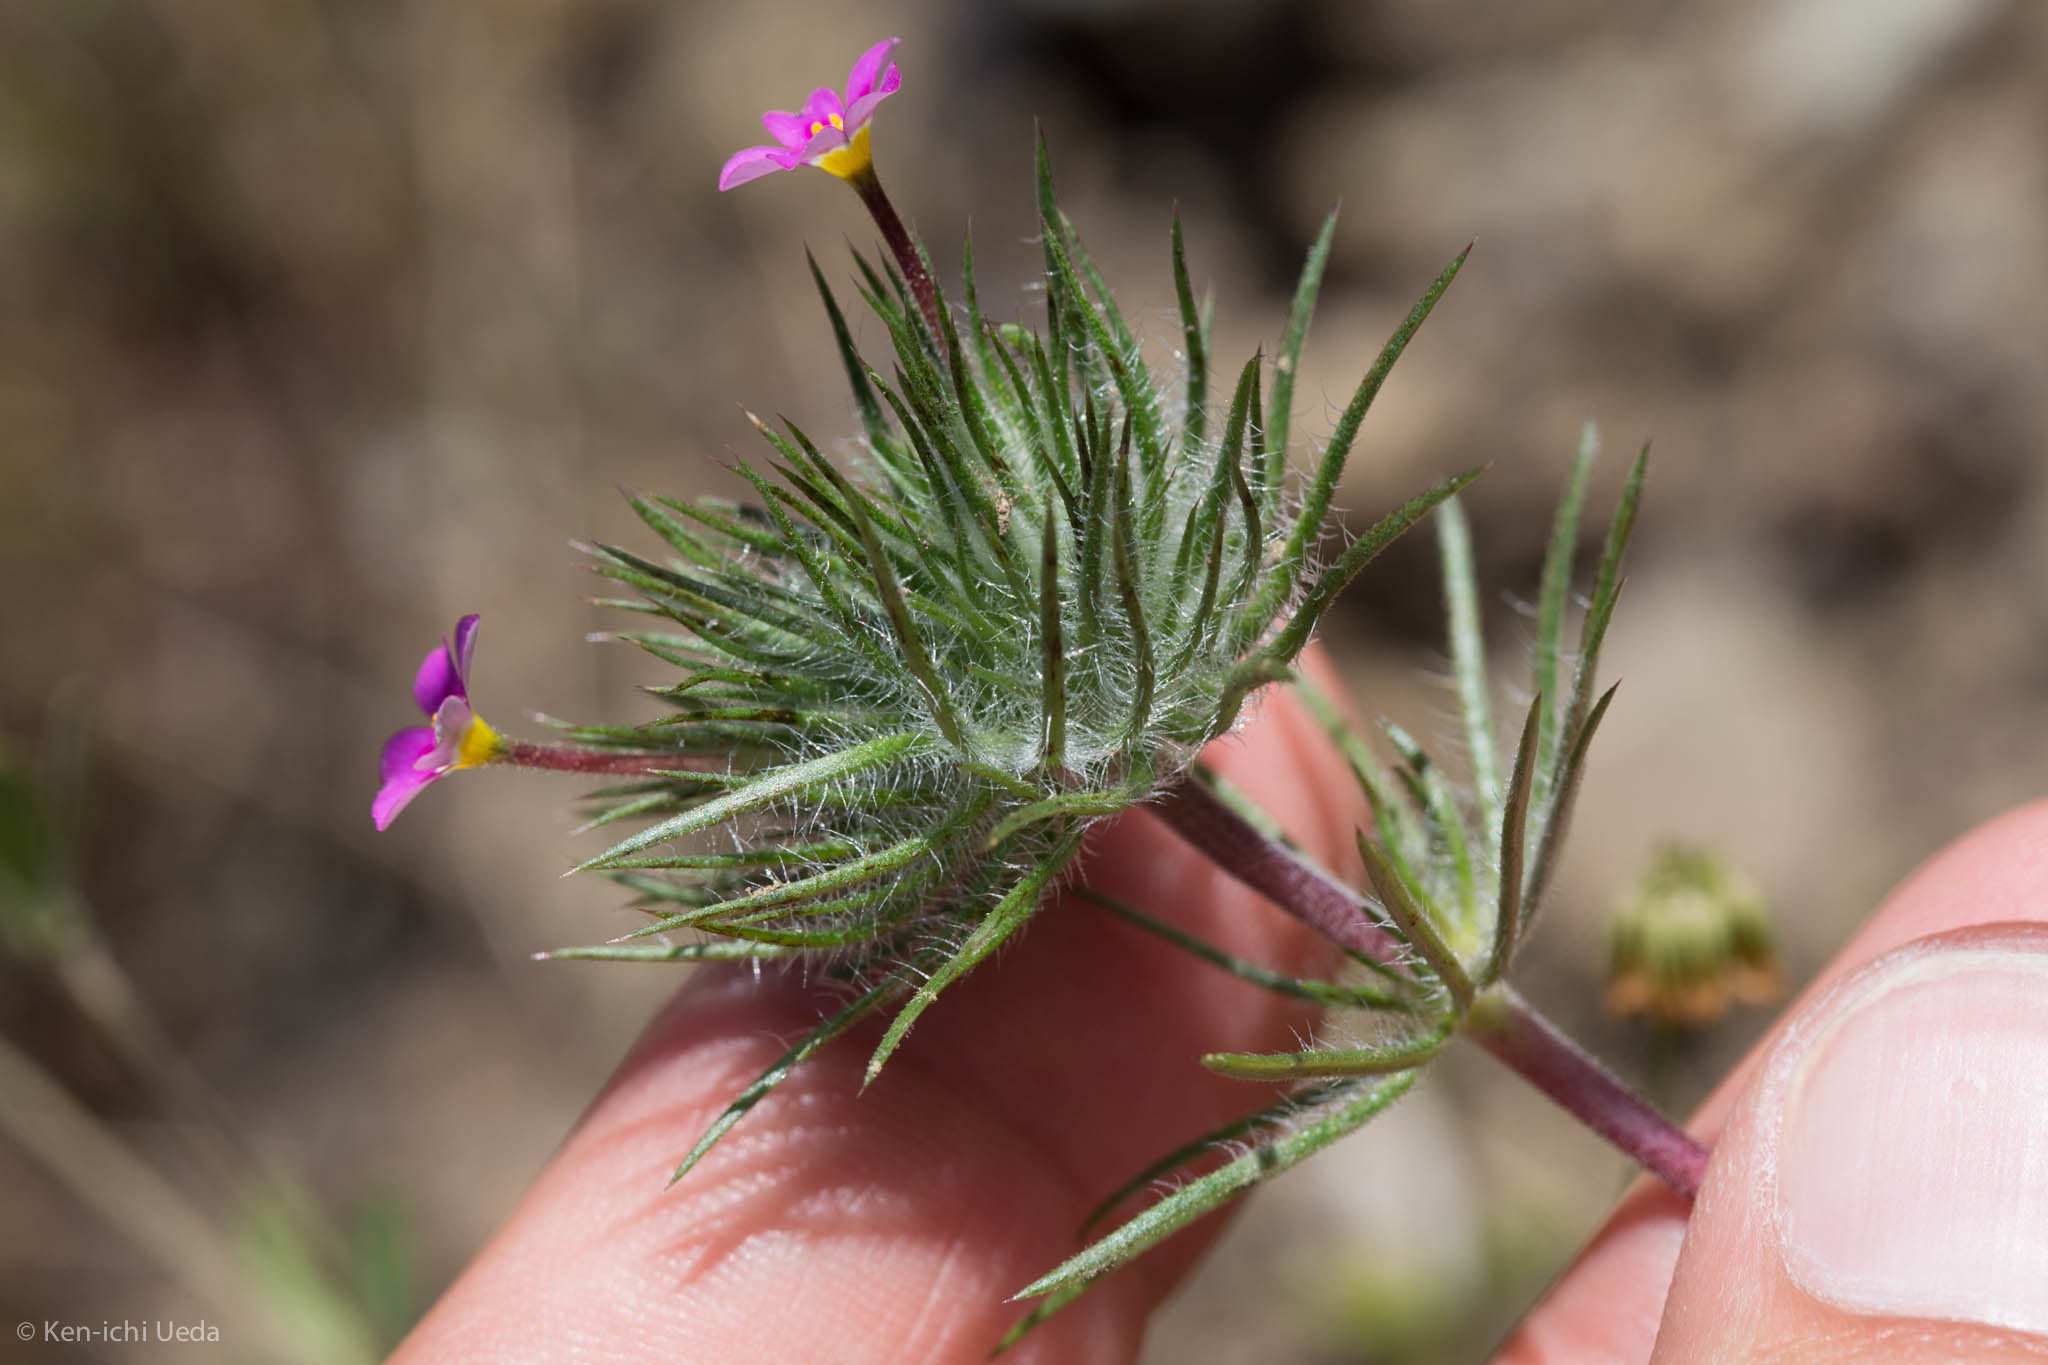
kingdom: Plantae
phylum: Tracheophyta
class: Magnoliopsida
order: Ericales
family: Polemoniaceae
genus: Leptosiphon
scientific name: Leptosiphon ciliatus
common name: Whiskerbrush
